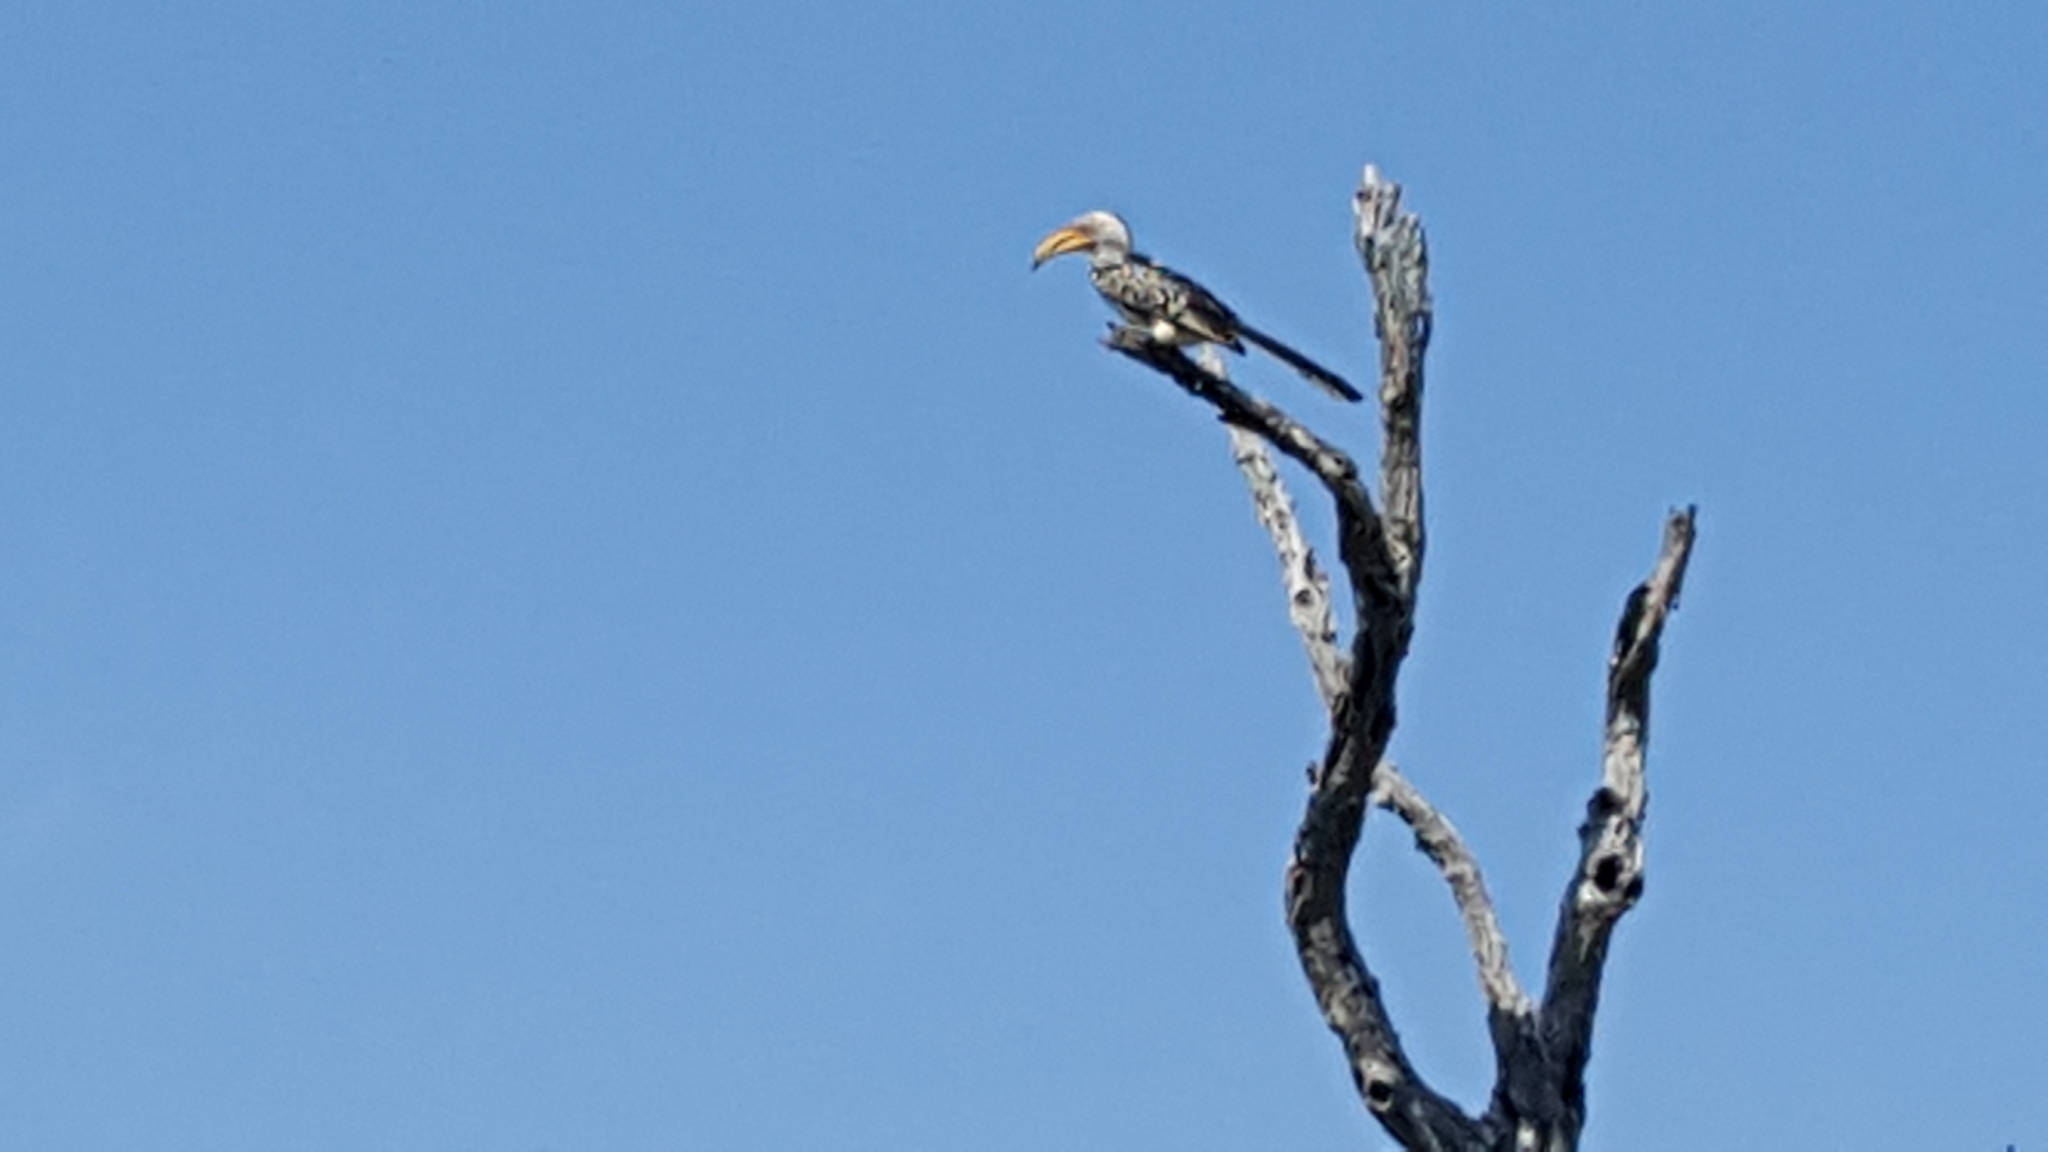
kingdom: Animalia
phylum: Chordata
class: Aves
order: Bucerotiformes
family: Bucerotidae
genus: Tockus
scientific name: Tockus leucomelas
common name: Southern yellow-billed hornbill
